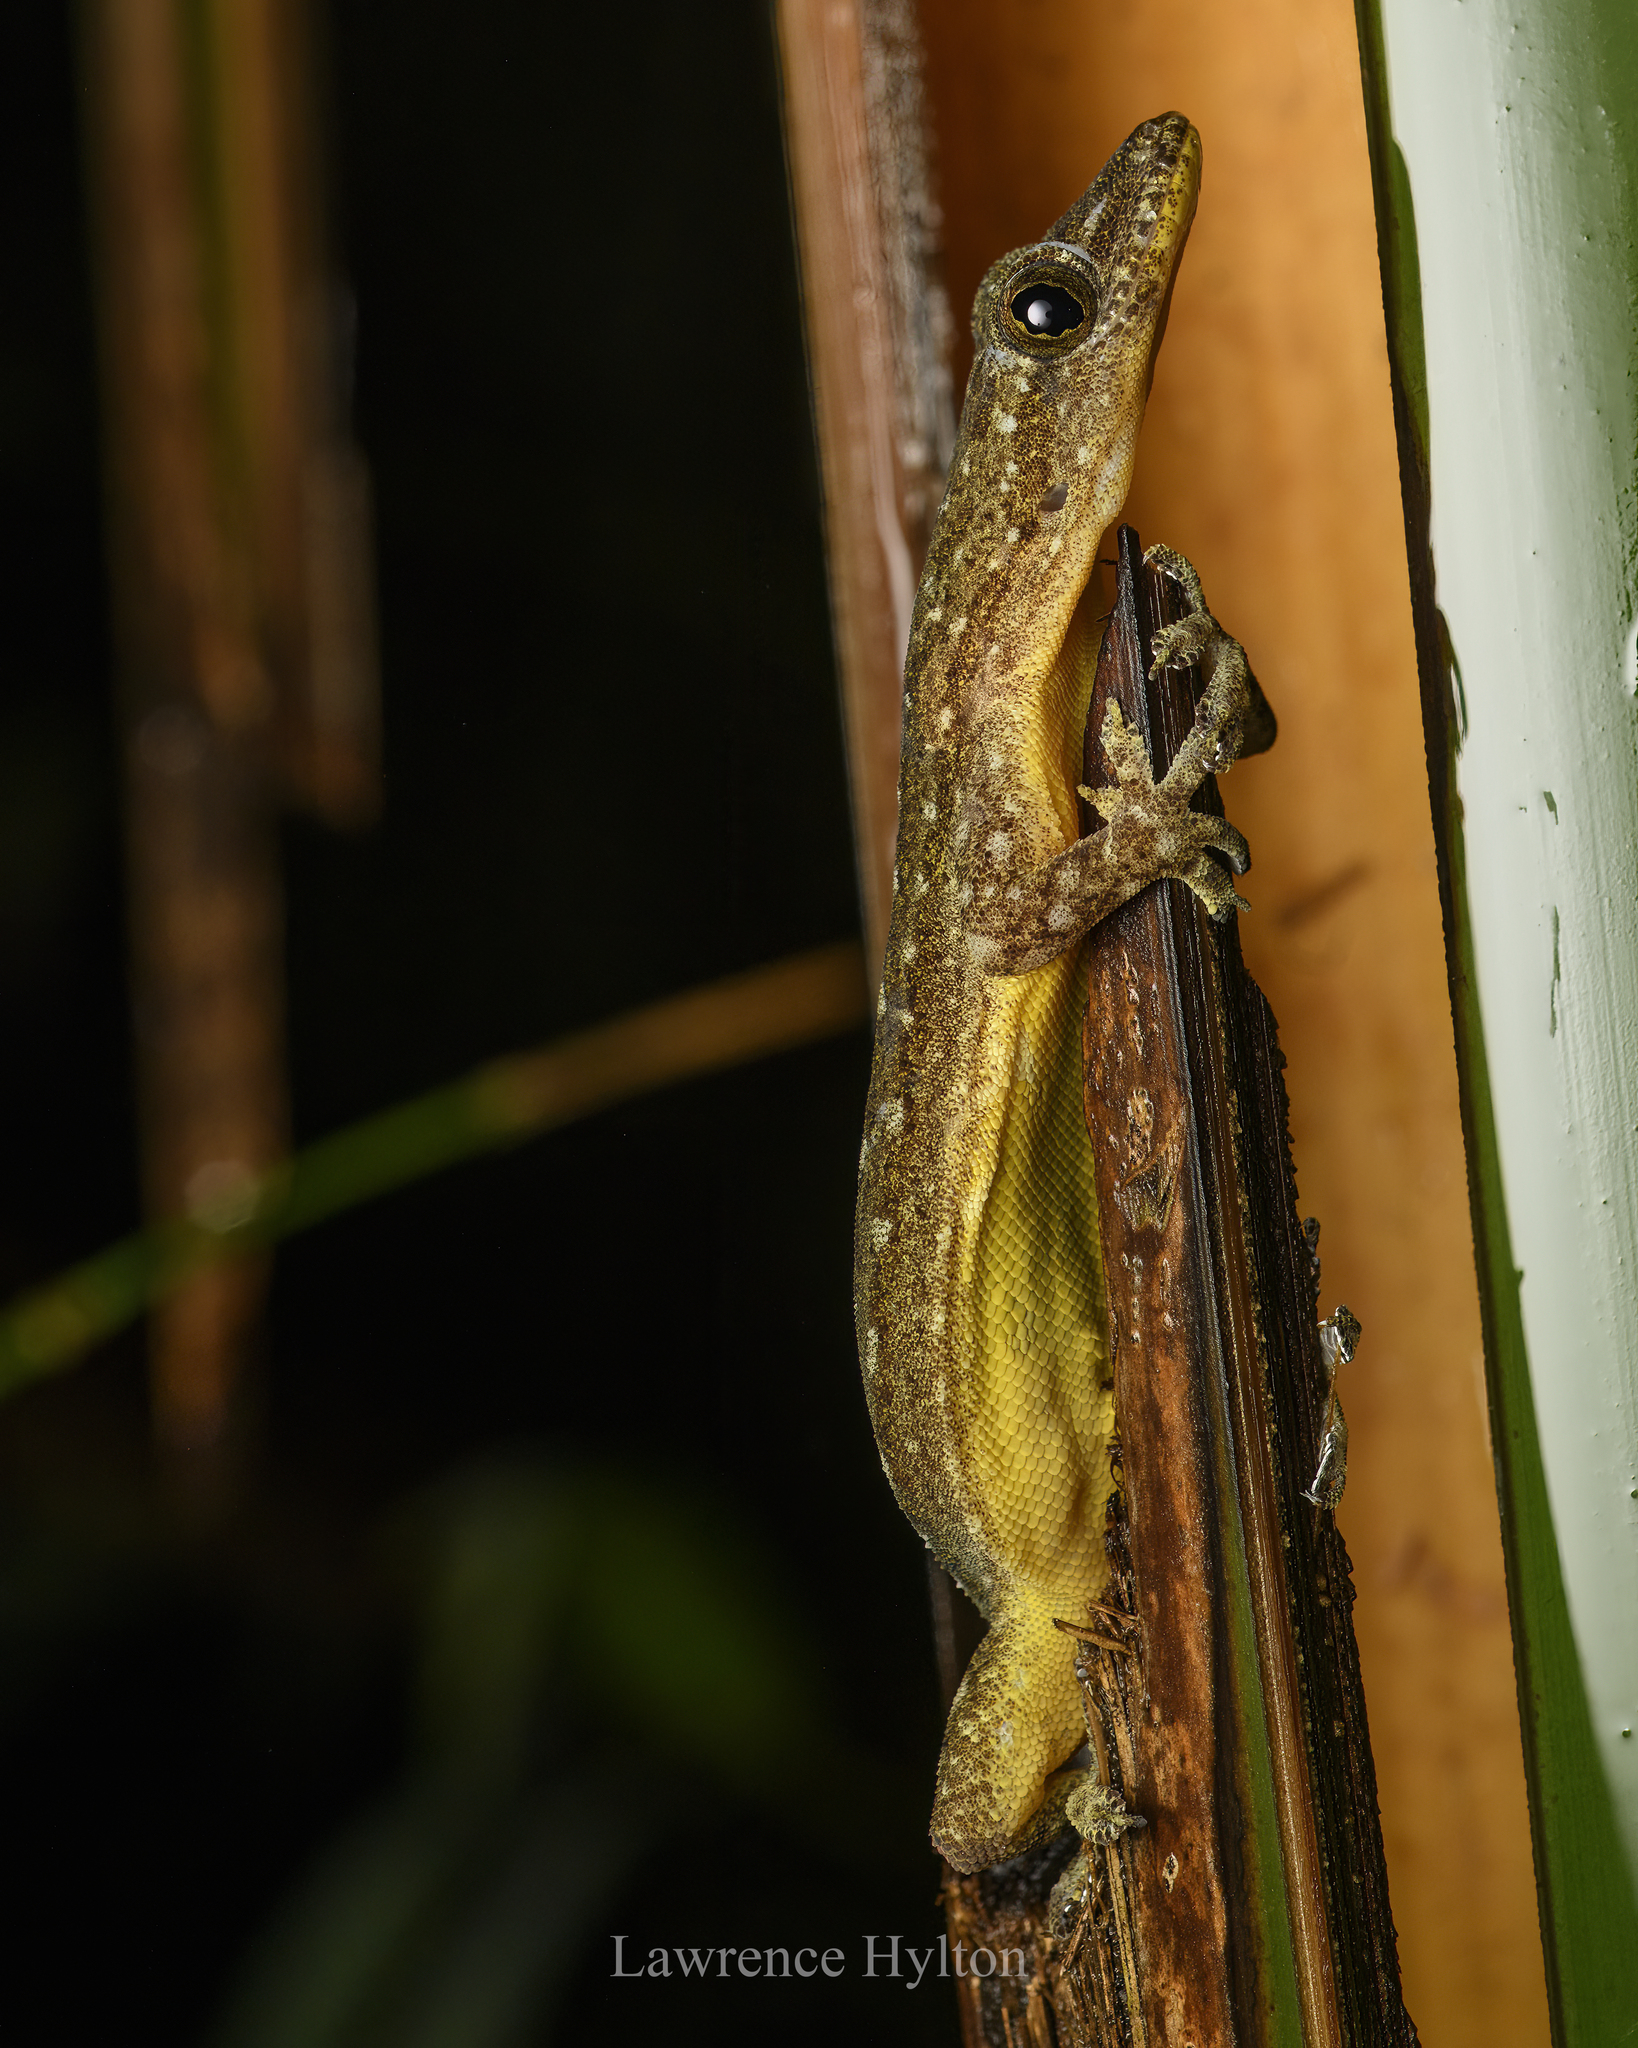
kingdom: Animalia
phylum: Chordata
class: Squamata
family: Gekkonidae
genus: Hemidactylus
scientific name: Hemidactylus garnotii
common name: Indo-pacific gecko
